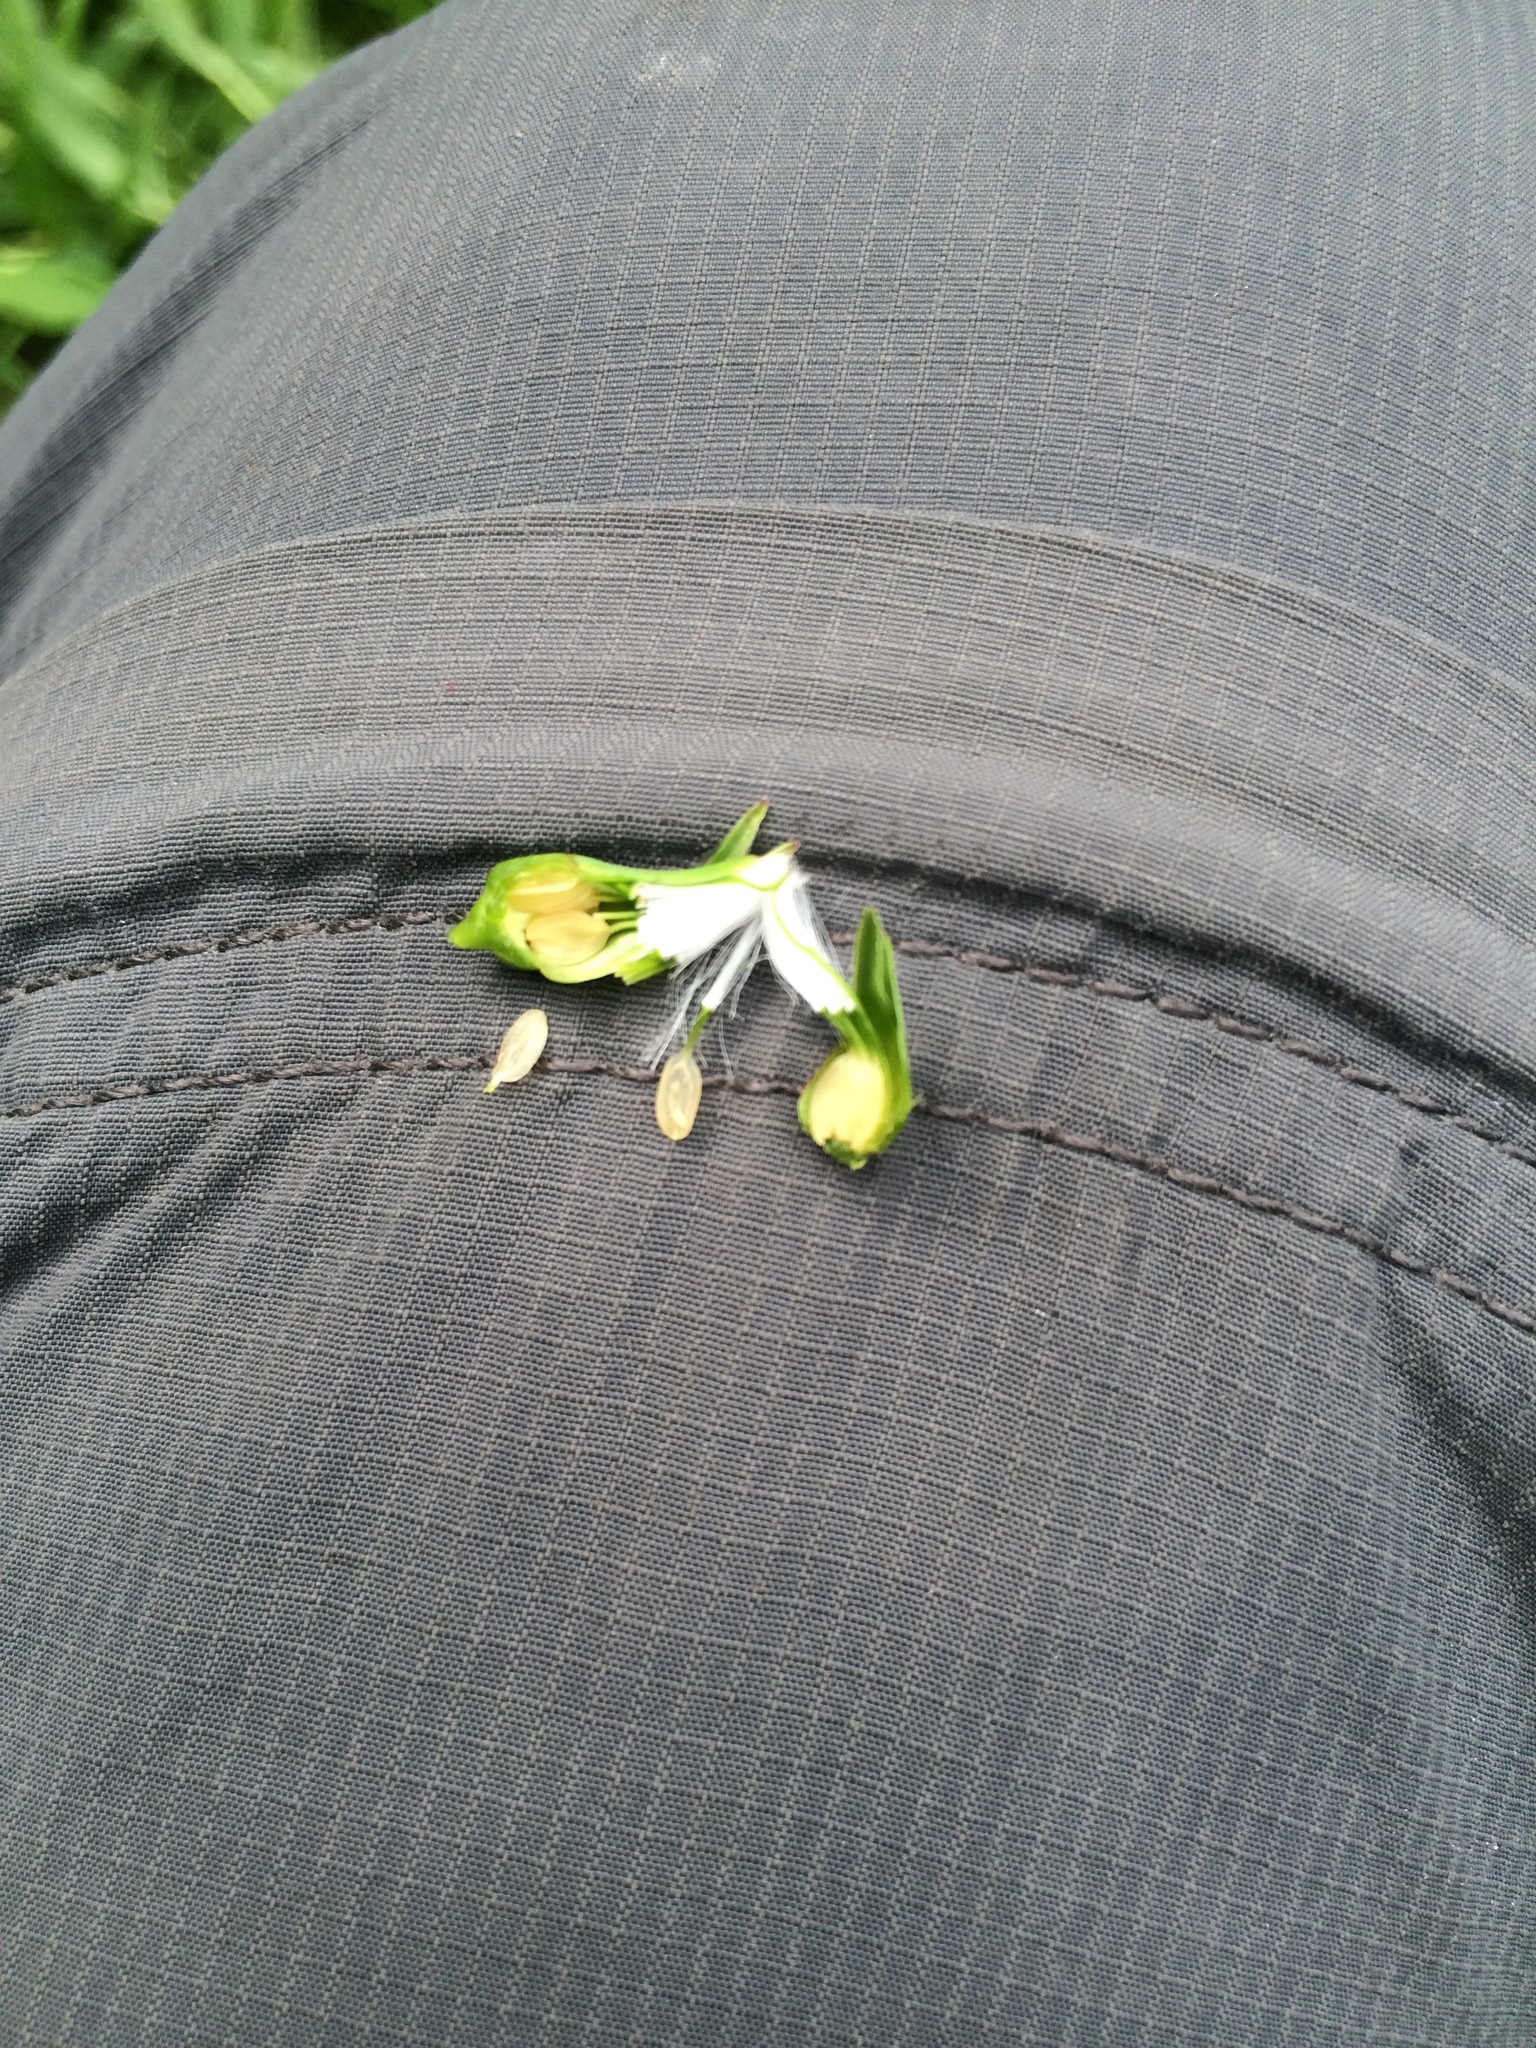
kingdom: Plantae
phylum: Tracheophyta
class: Magnoliopsida
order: Asterales
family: Asteraceae
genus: Lactuca
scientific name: Lactuca canadensis
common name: Canada lettuce
